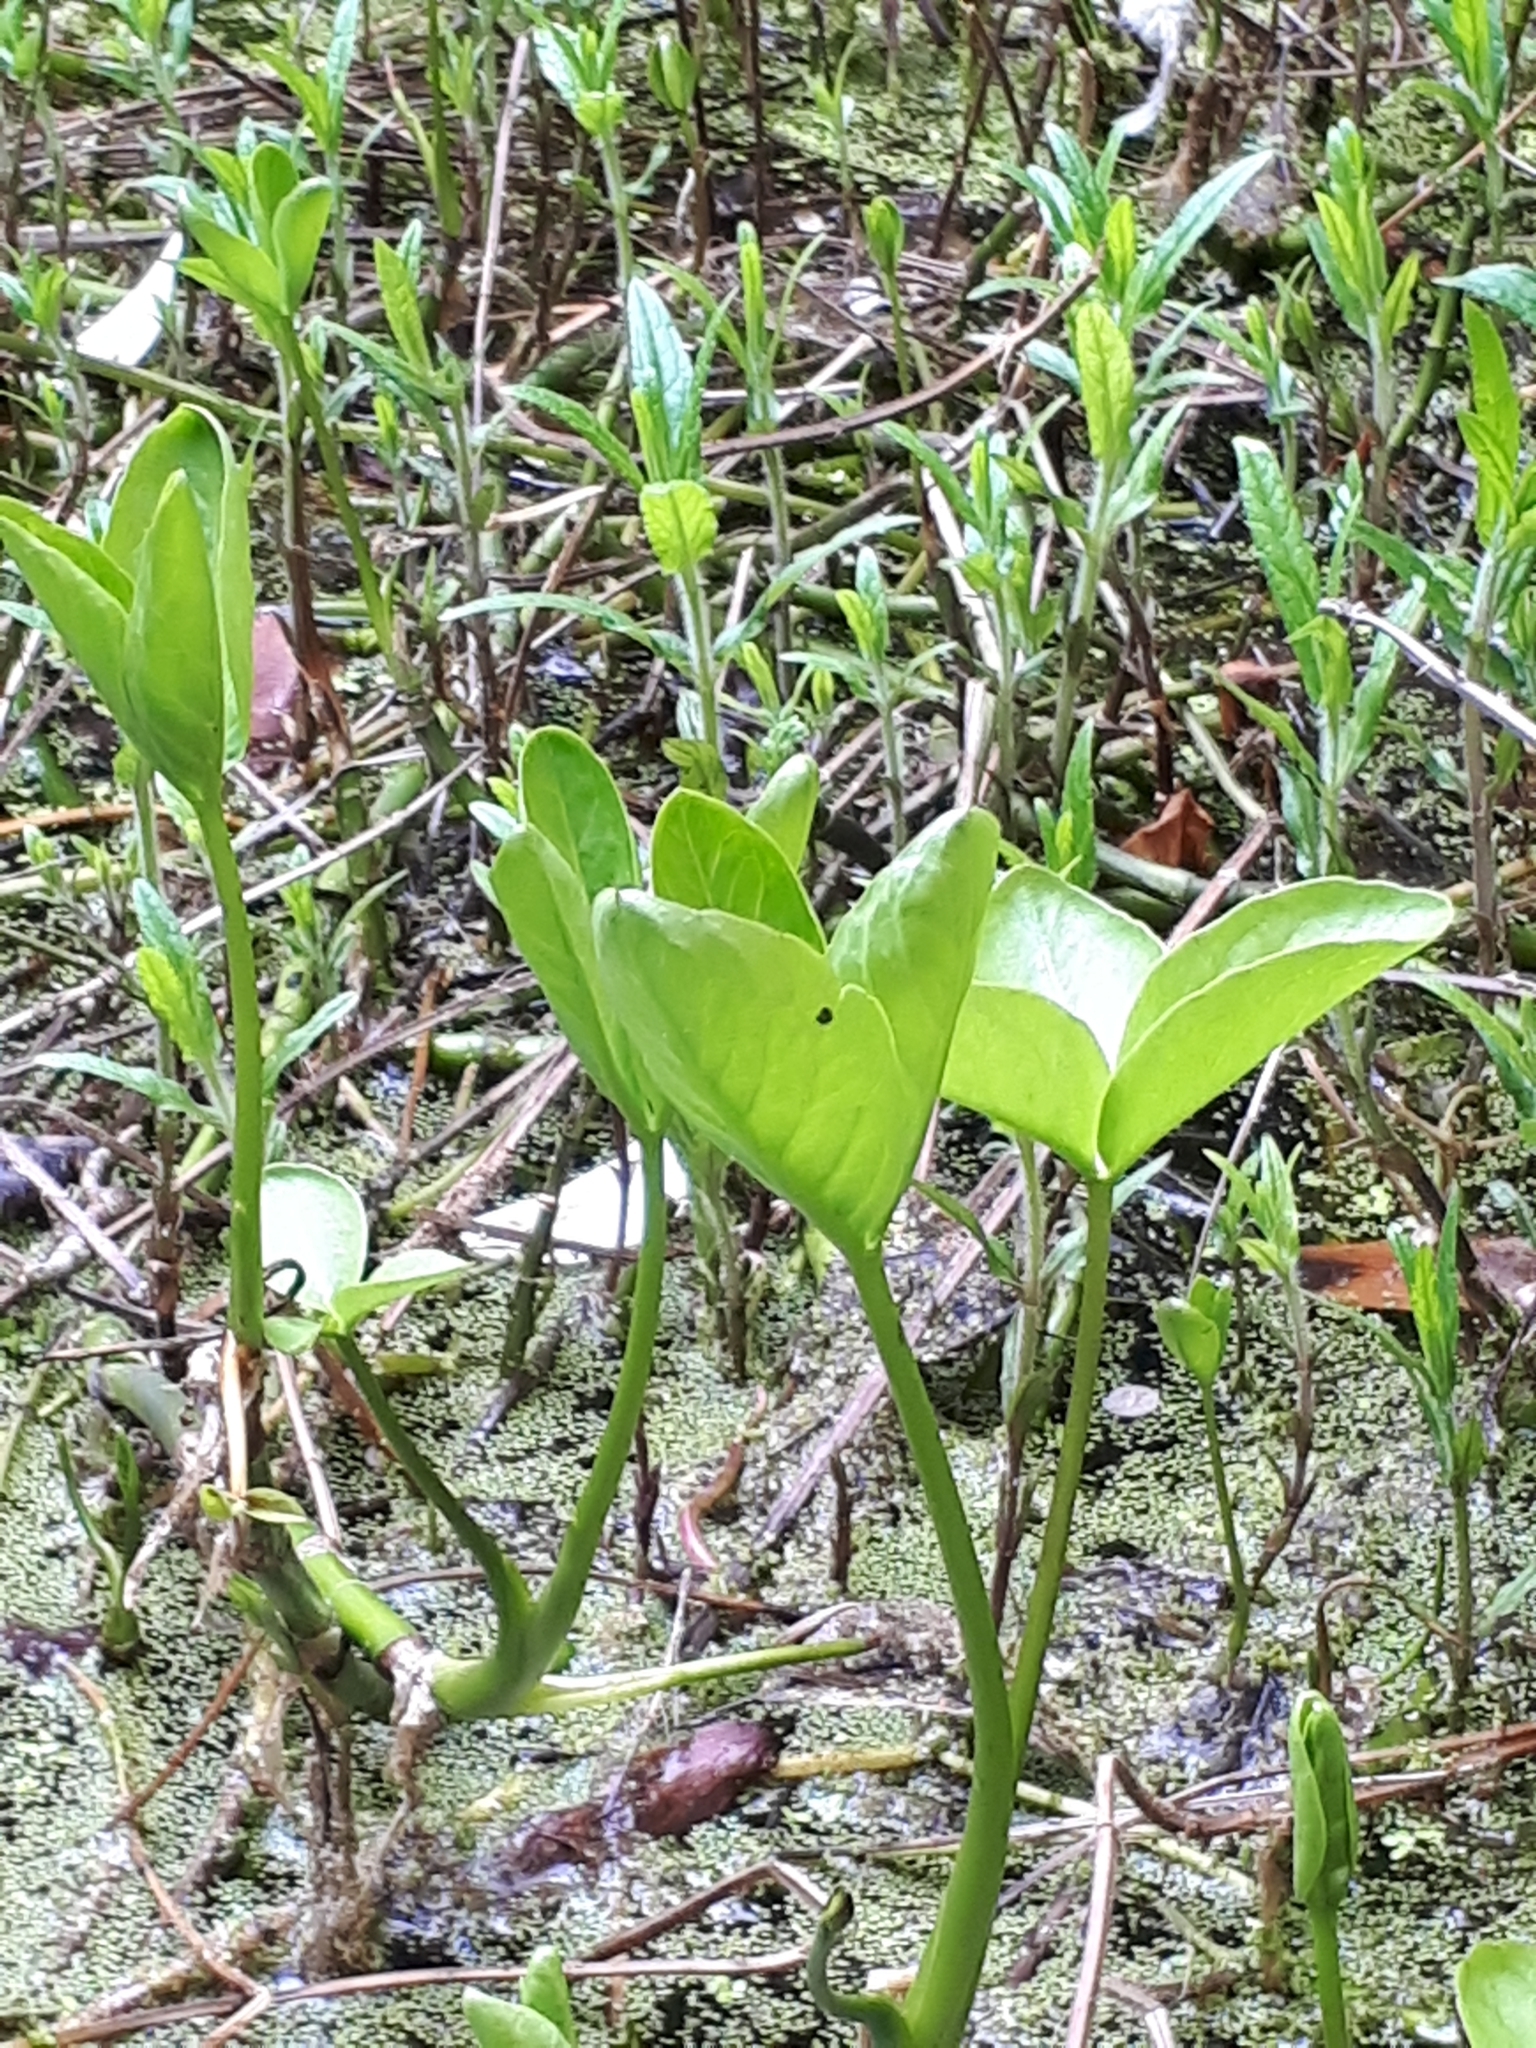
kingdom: Plantae
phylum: Tracheophyta
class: Magnoliopsida
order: Asterales
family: Menyanthaceae
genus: Menyanthes
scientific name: Menyanthes trifoliata
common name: Bogbean
